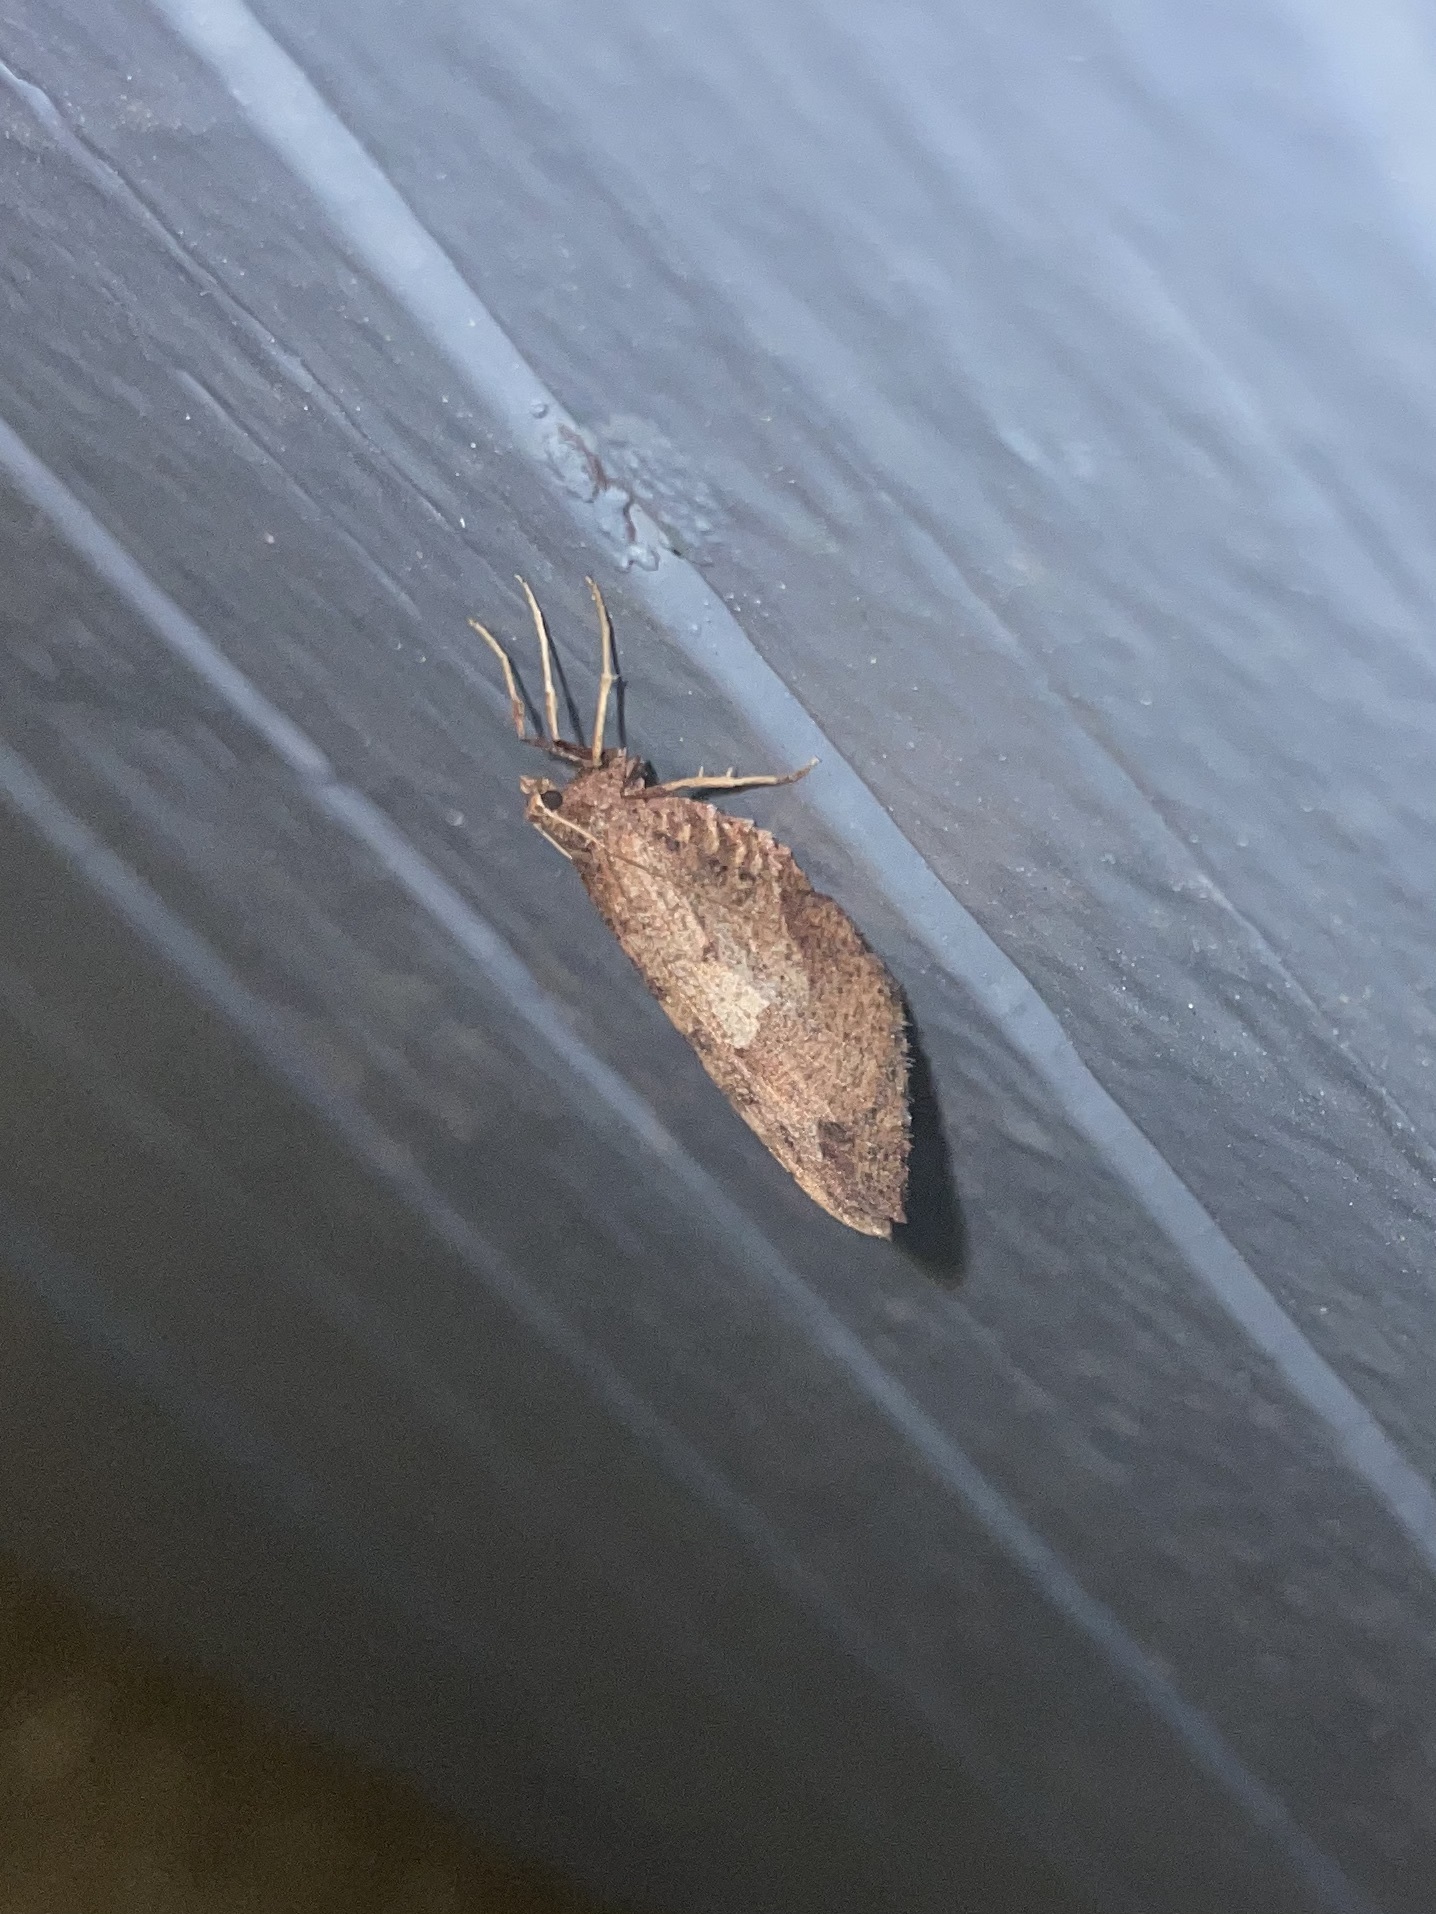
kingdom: Animalia
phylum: Arthropoda
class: Insecta
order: Lepidoptera
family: Geometridae
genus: Stamnodes
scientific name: Stamnodes affiliata
